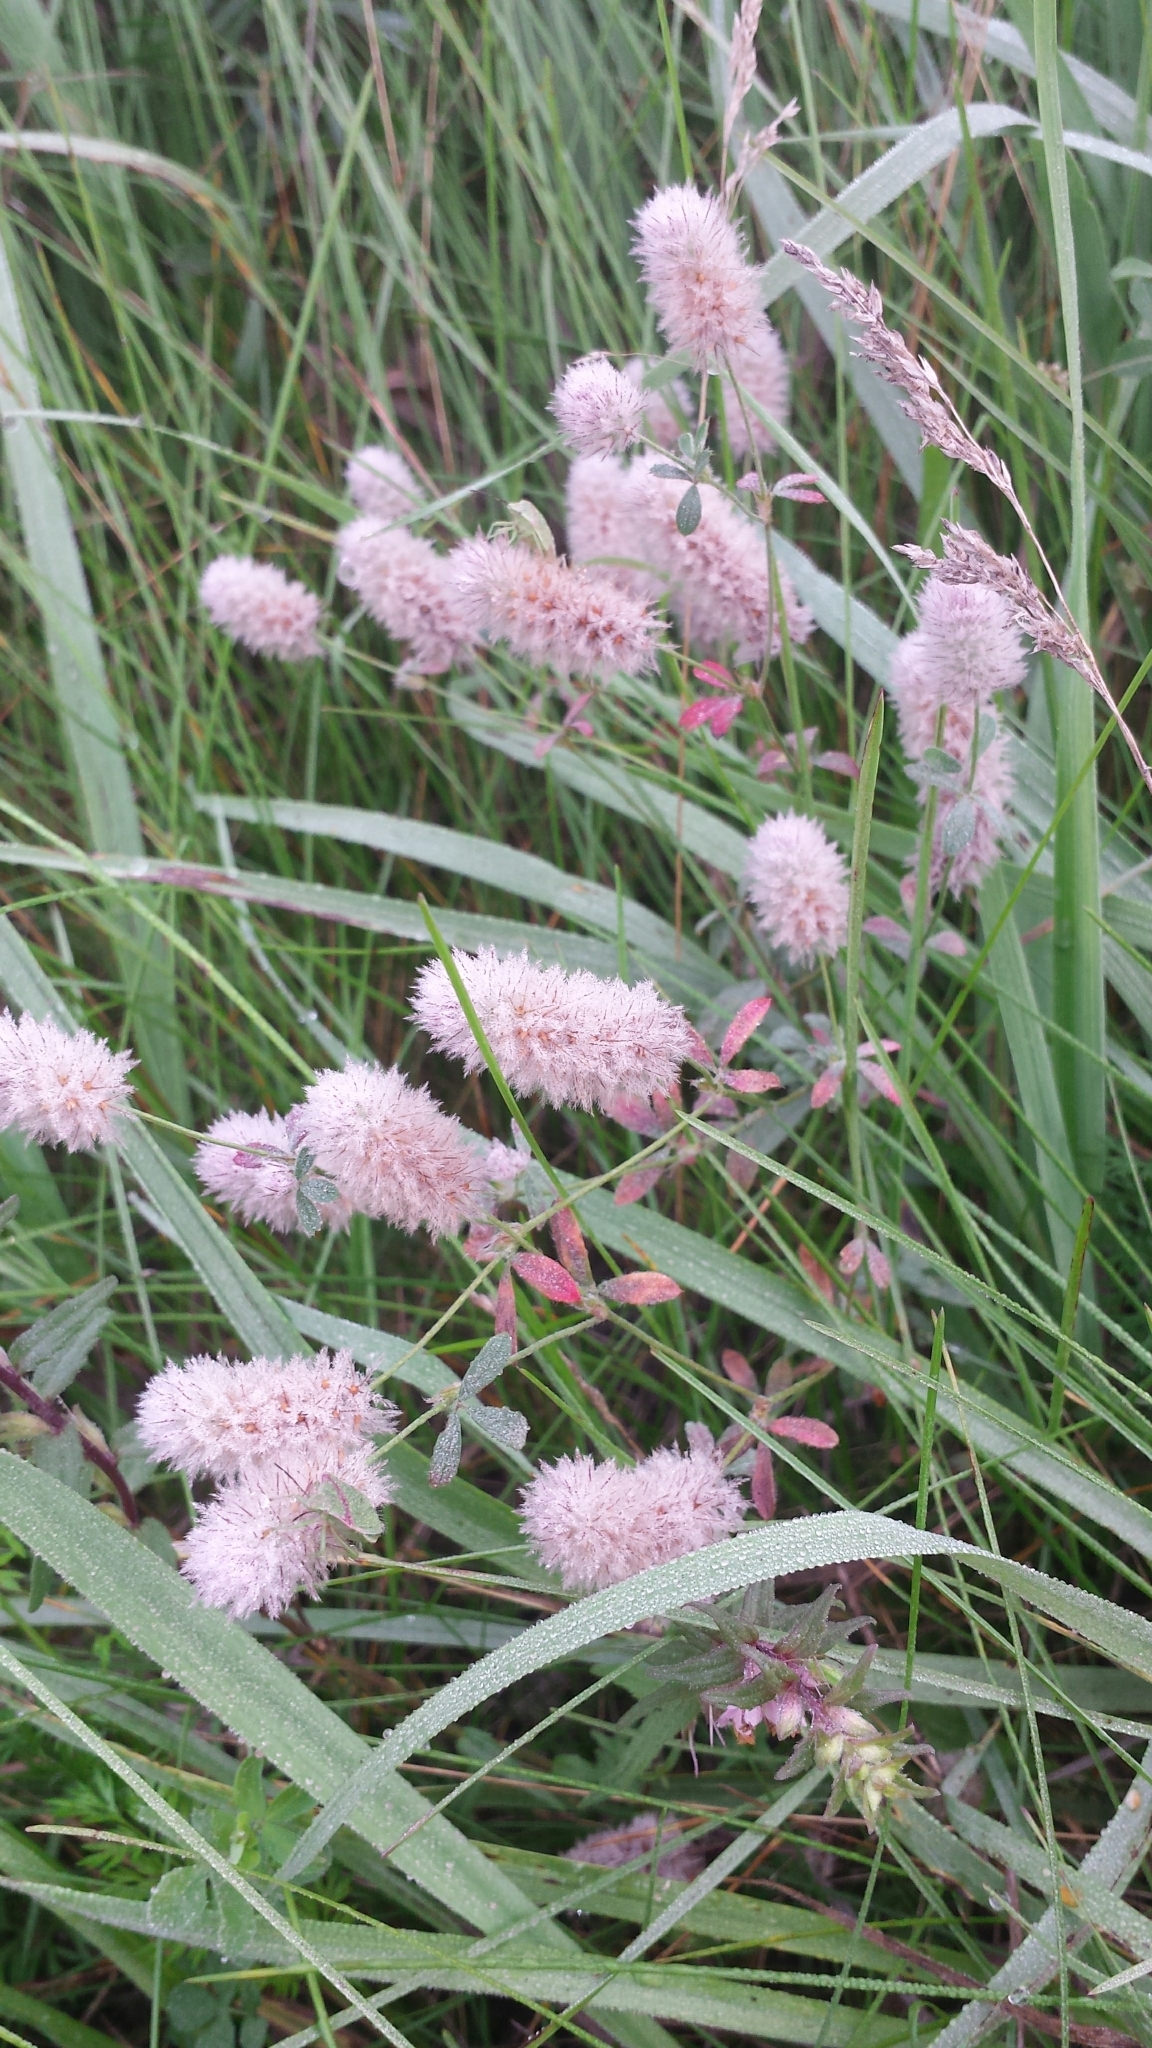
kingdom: Plantae
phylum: Tracheophyta
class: Magnoliopsida
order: Fabales
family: Fabaceae
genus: Trifolium
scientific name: Trifolium arvense
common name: Hare's-foot clover
